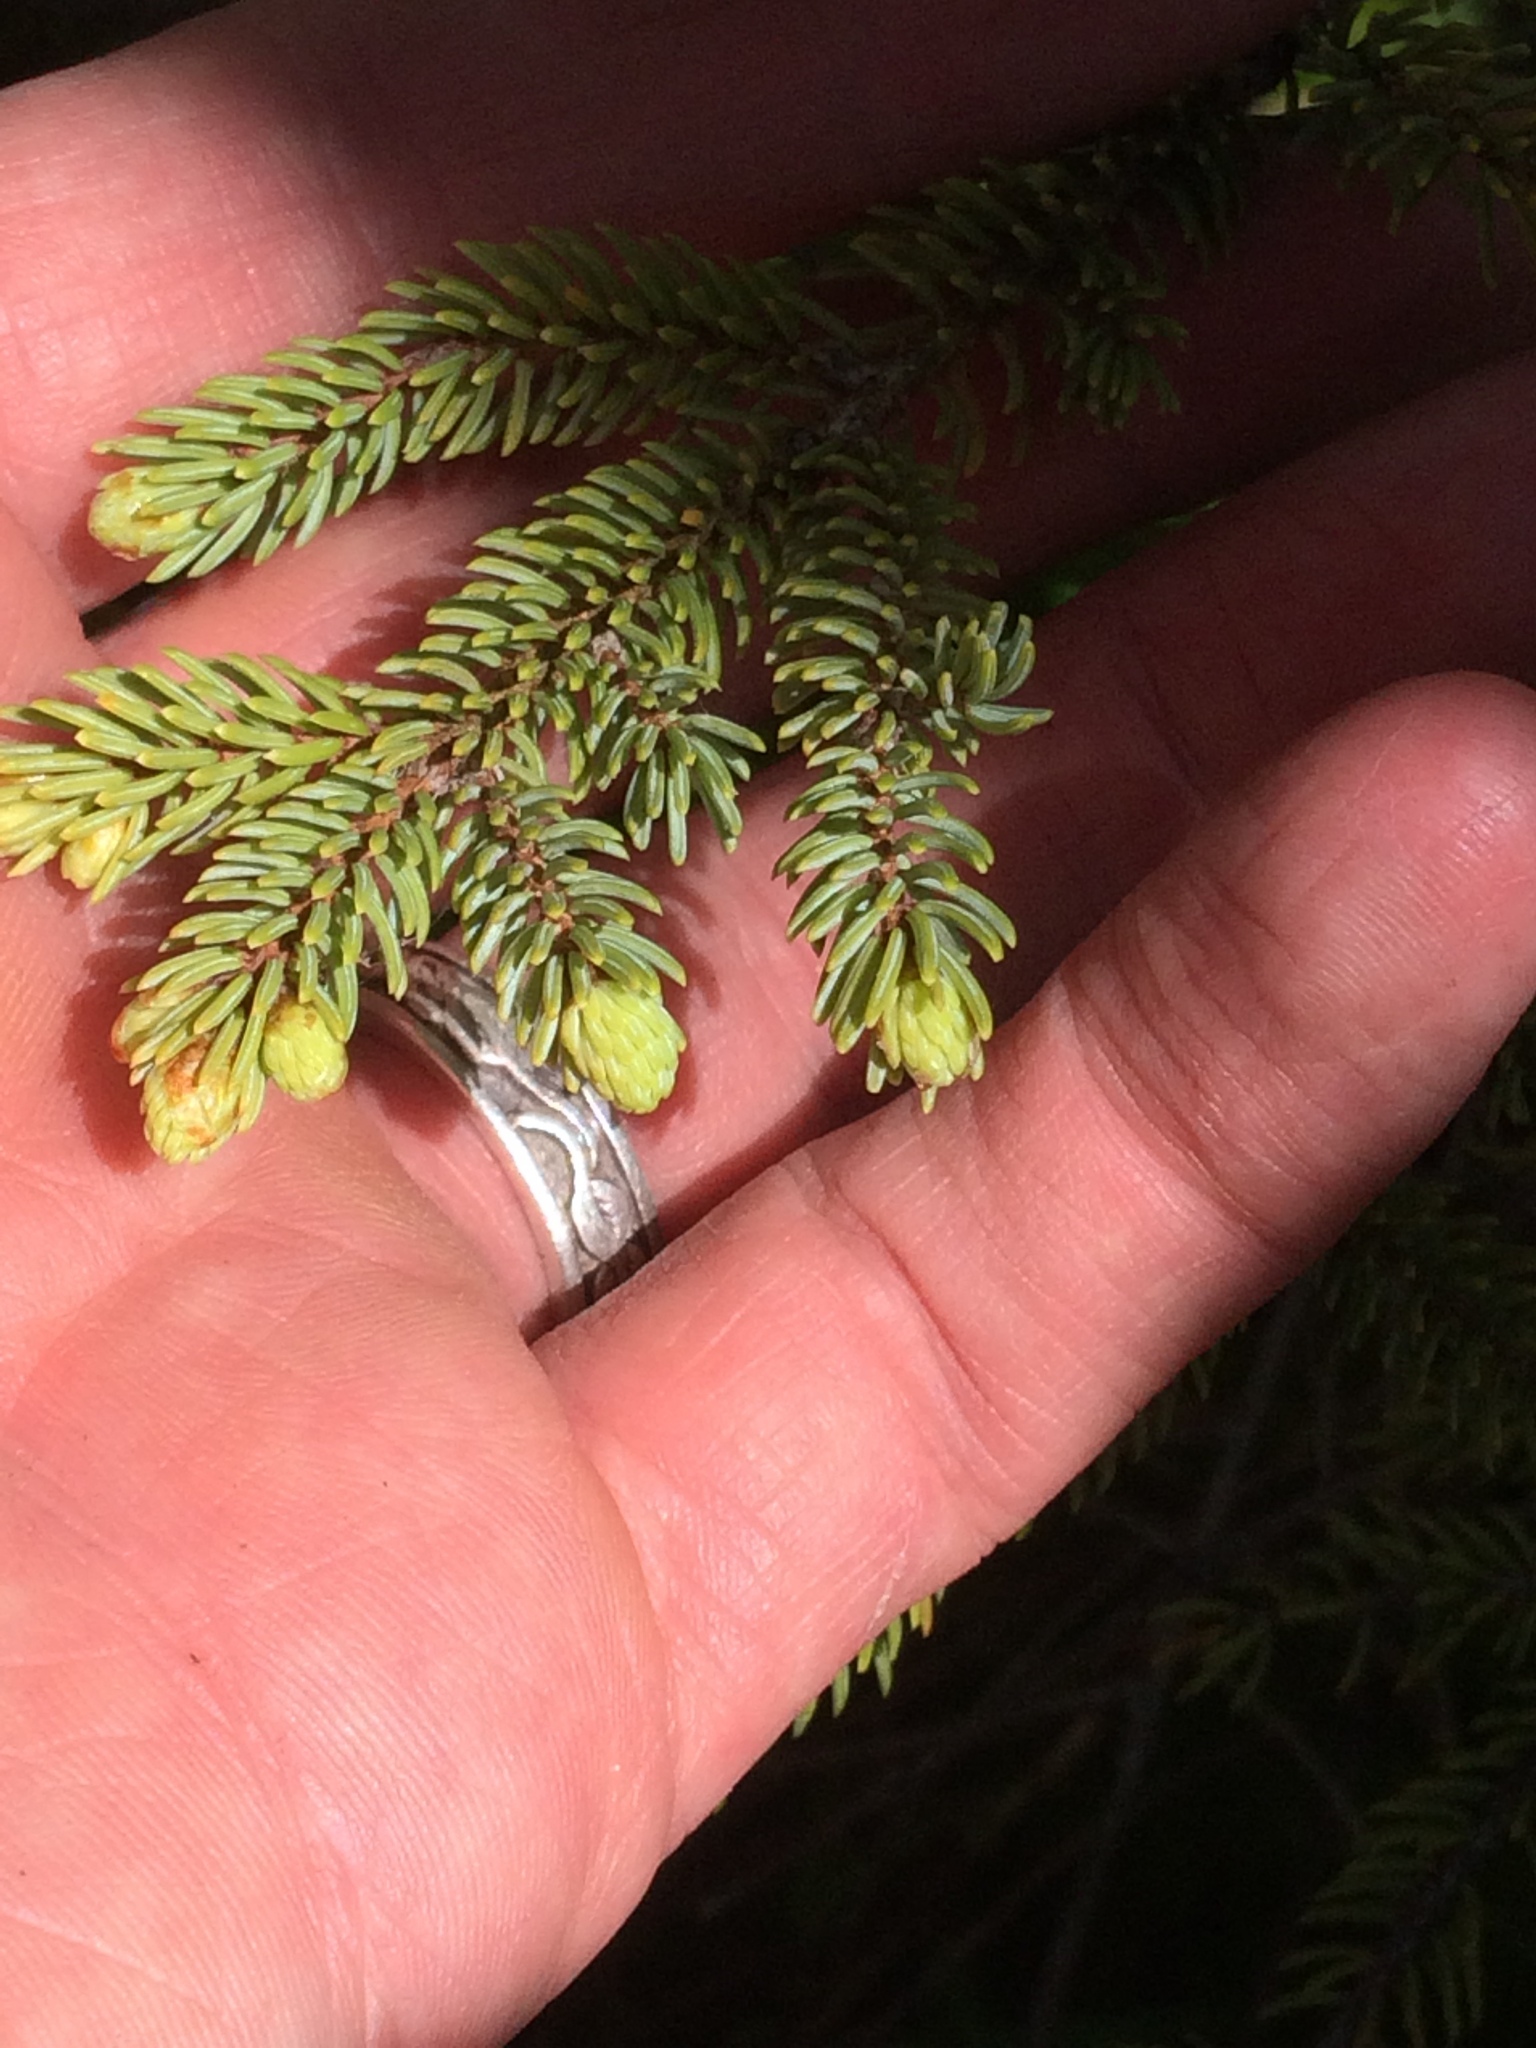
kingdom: Plantae
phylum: Tracheophyta
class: Pinopsida
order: Pinales
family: Pinaceae
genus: Picea
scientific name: Picea mariana
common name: Black spruce
